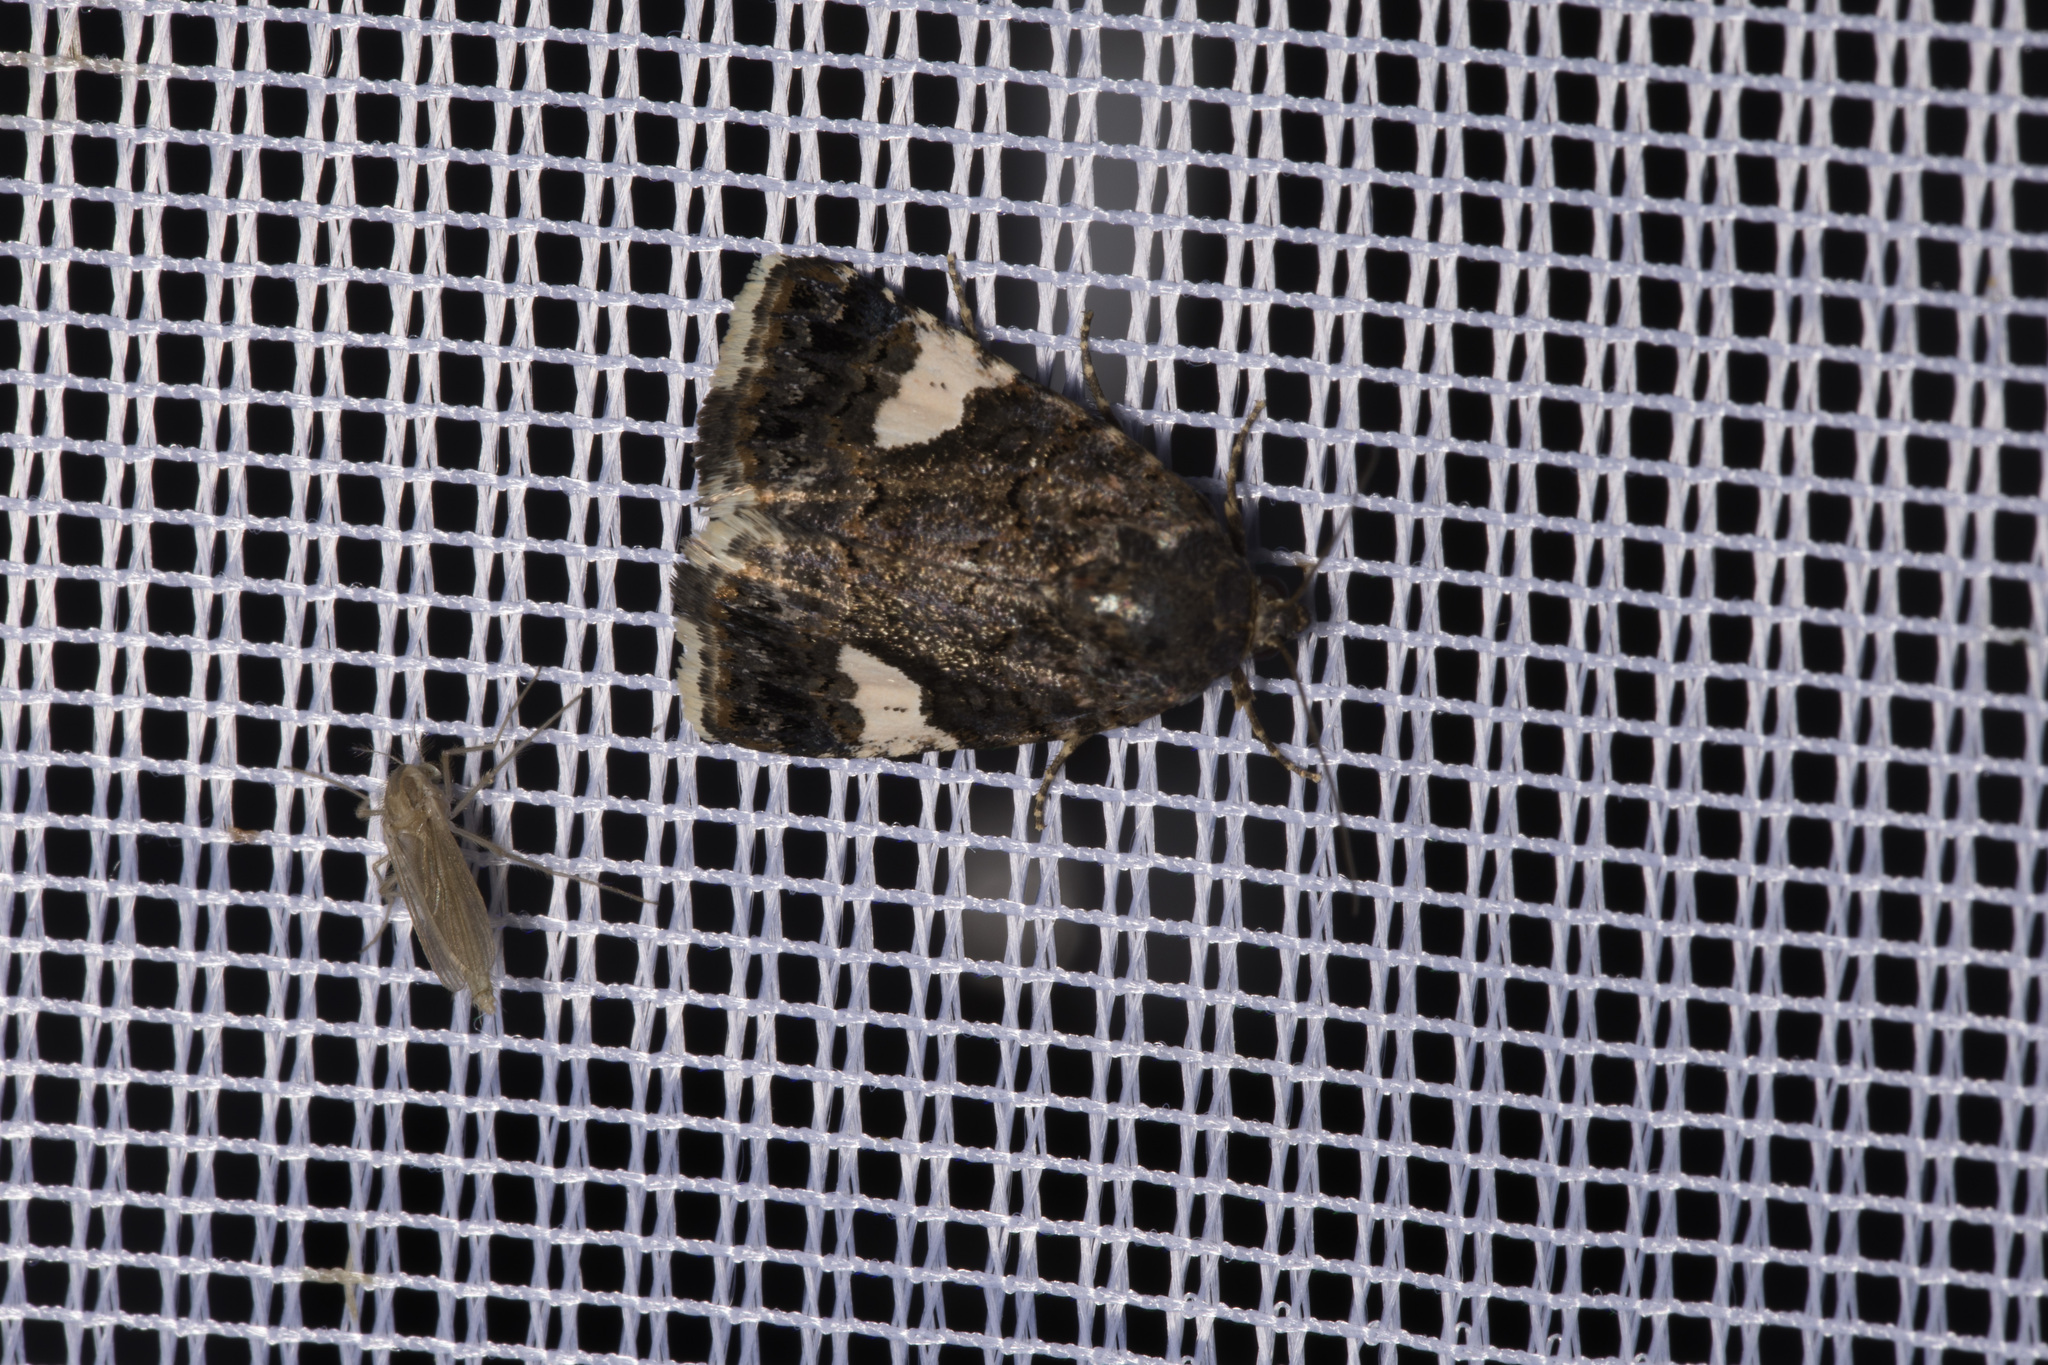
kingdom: Animalia
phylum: Arthropoda
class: Insecta
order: Lepidoptera
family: Erebidae
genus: Tyta
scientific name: Tyta luctuosa
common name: Four-spotted
